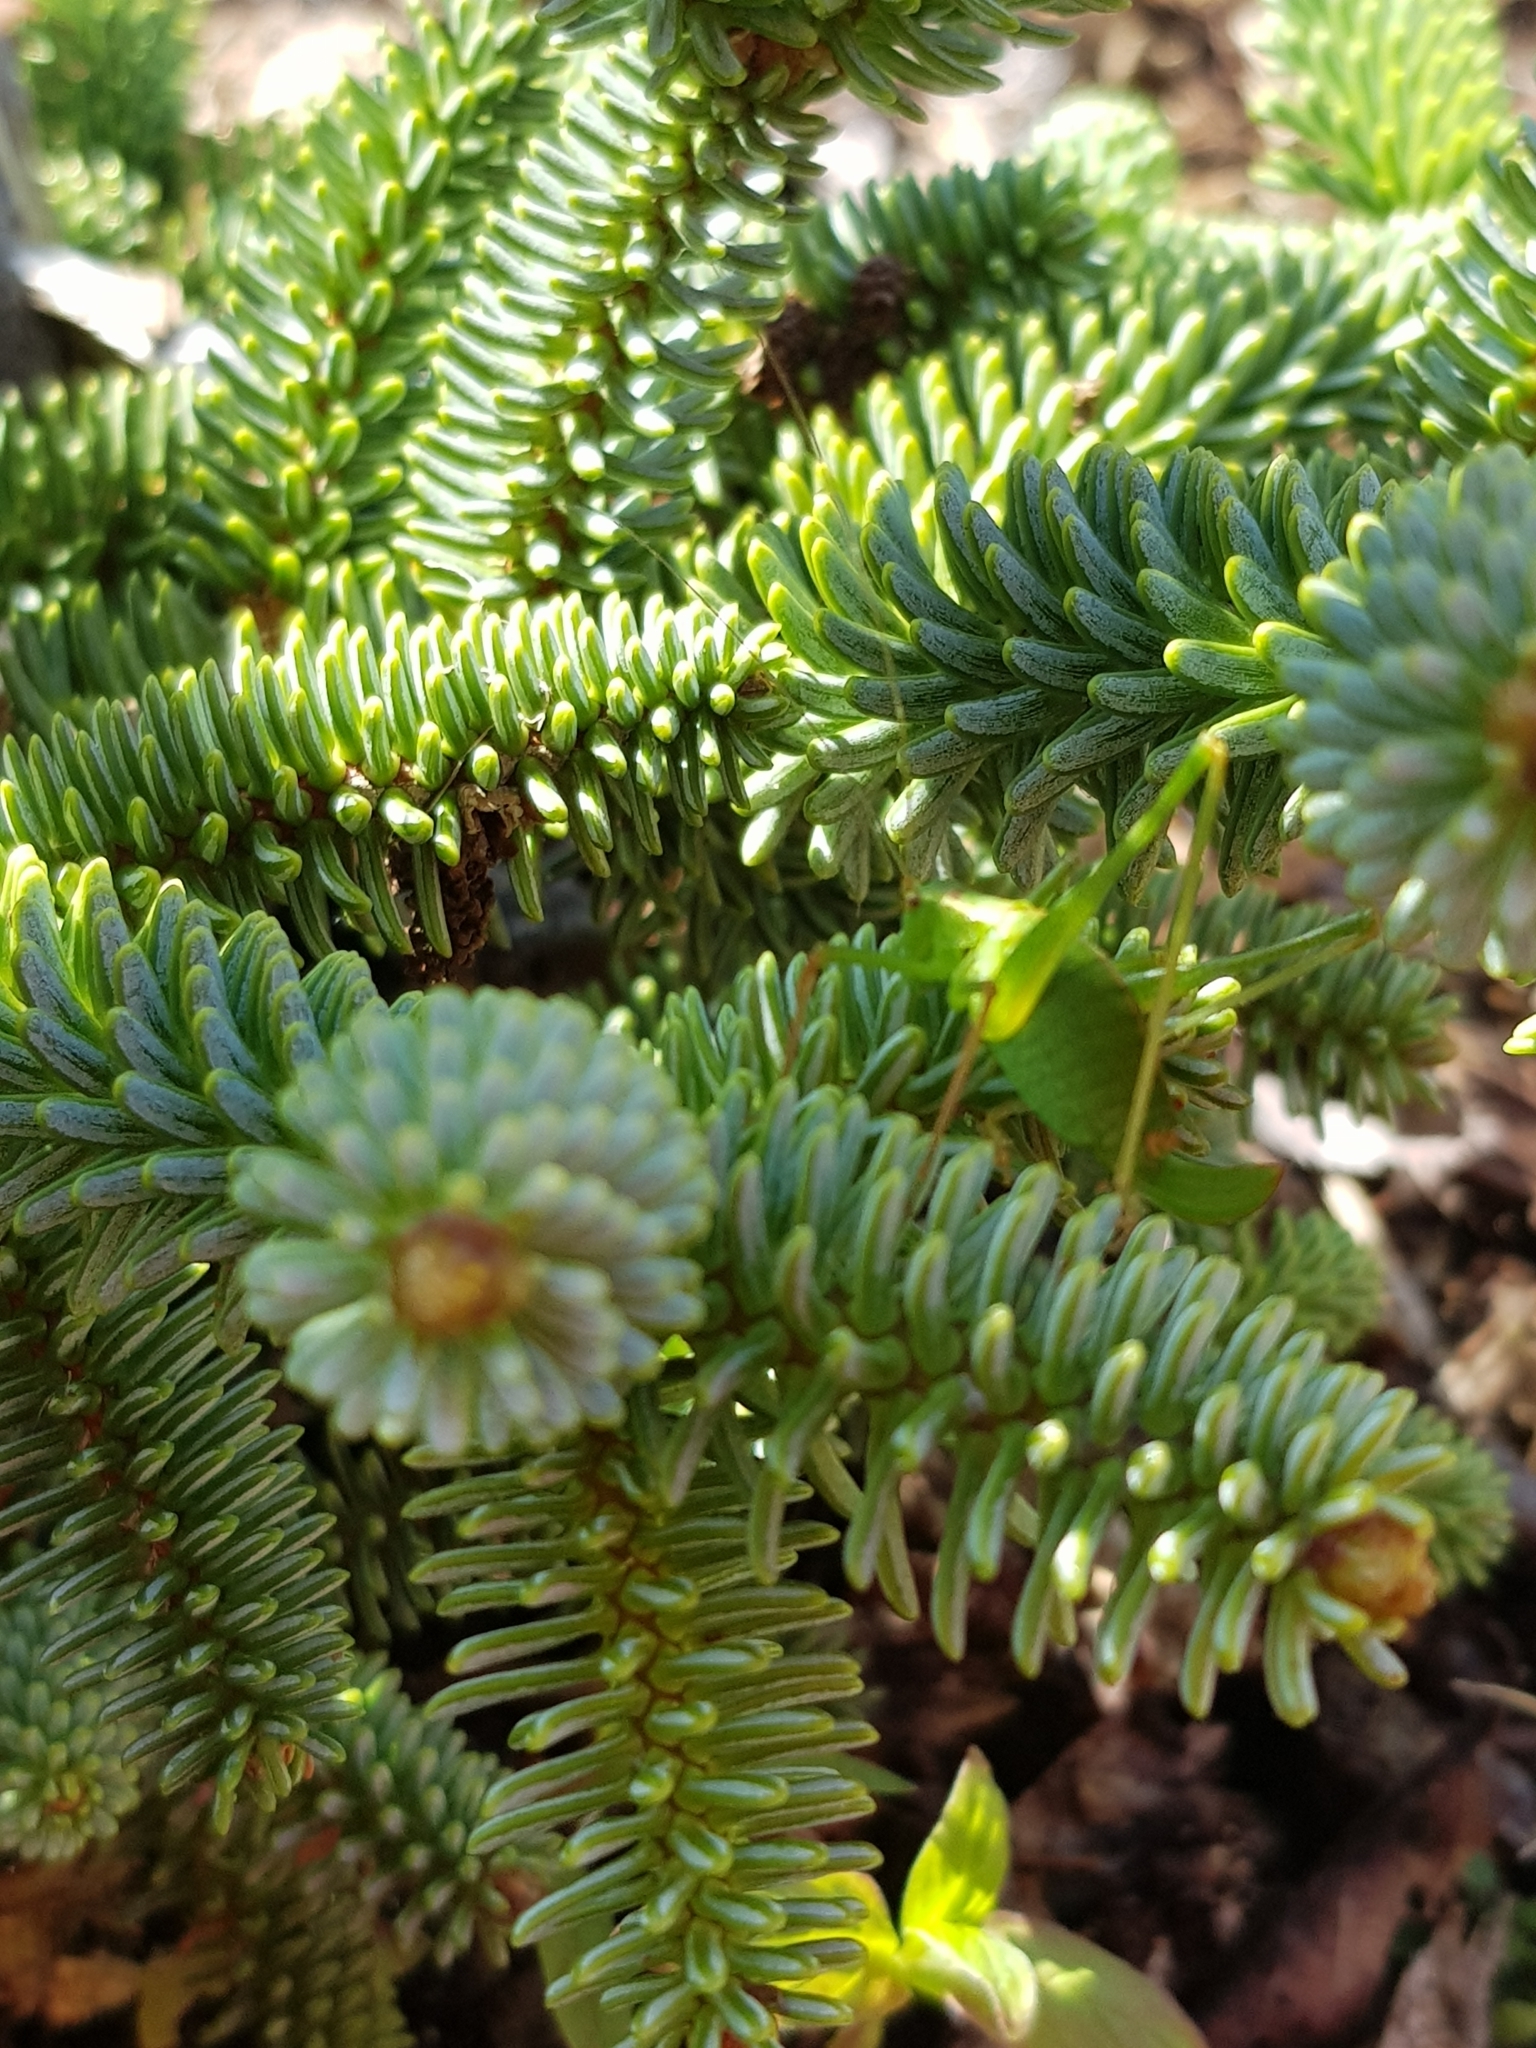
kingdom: Animalia
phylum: Arthropoda
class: Insecta
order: Orthoptera
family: Tettigoniidae
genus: Leptophyes
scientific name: Leptophyes punctatissima
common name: Speckled bush-cricket
